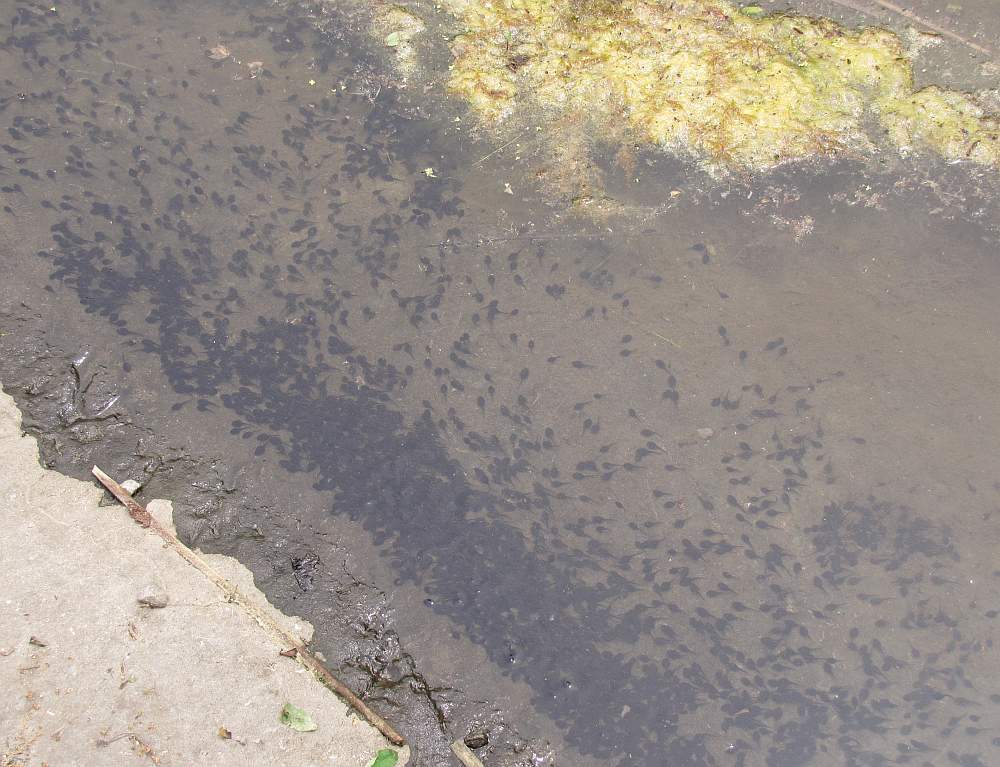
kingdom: Animalia
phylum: Chordata
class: Amphibia
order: Anura
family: Bufonidae
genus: Anaxyrus
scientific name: Anaxyrus americanus
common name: American toad
